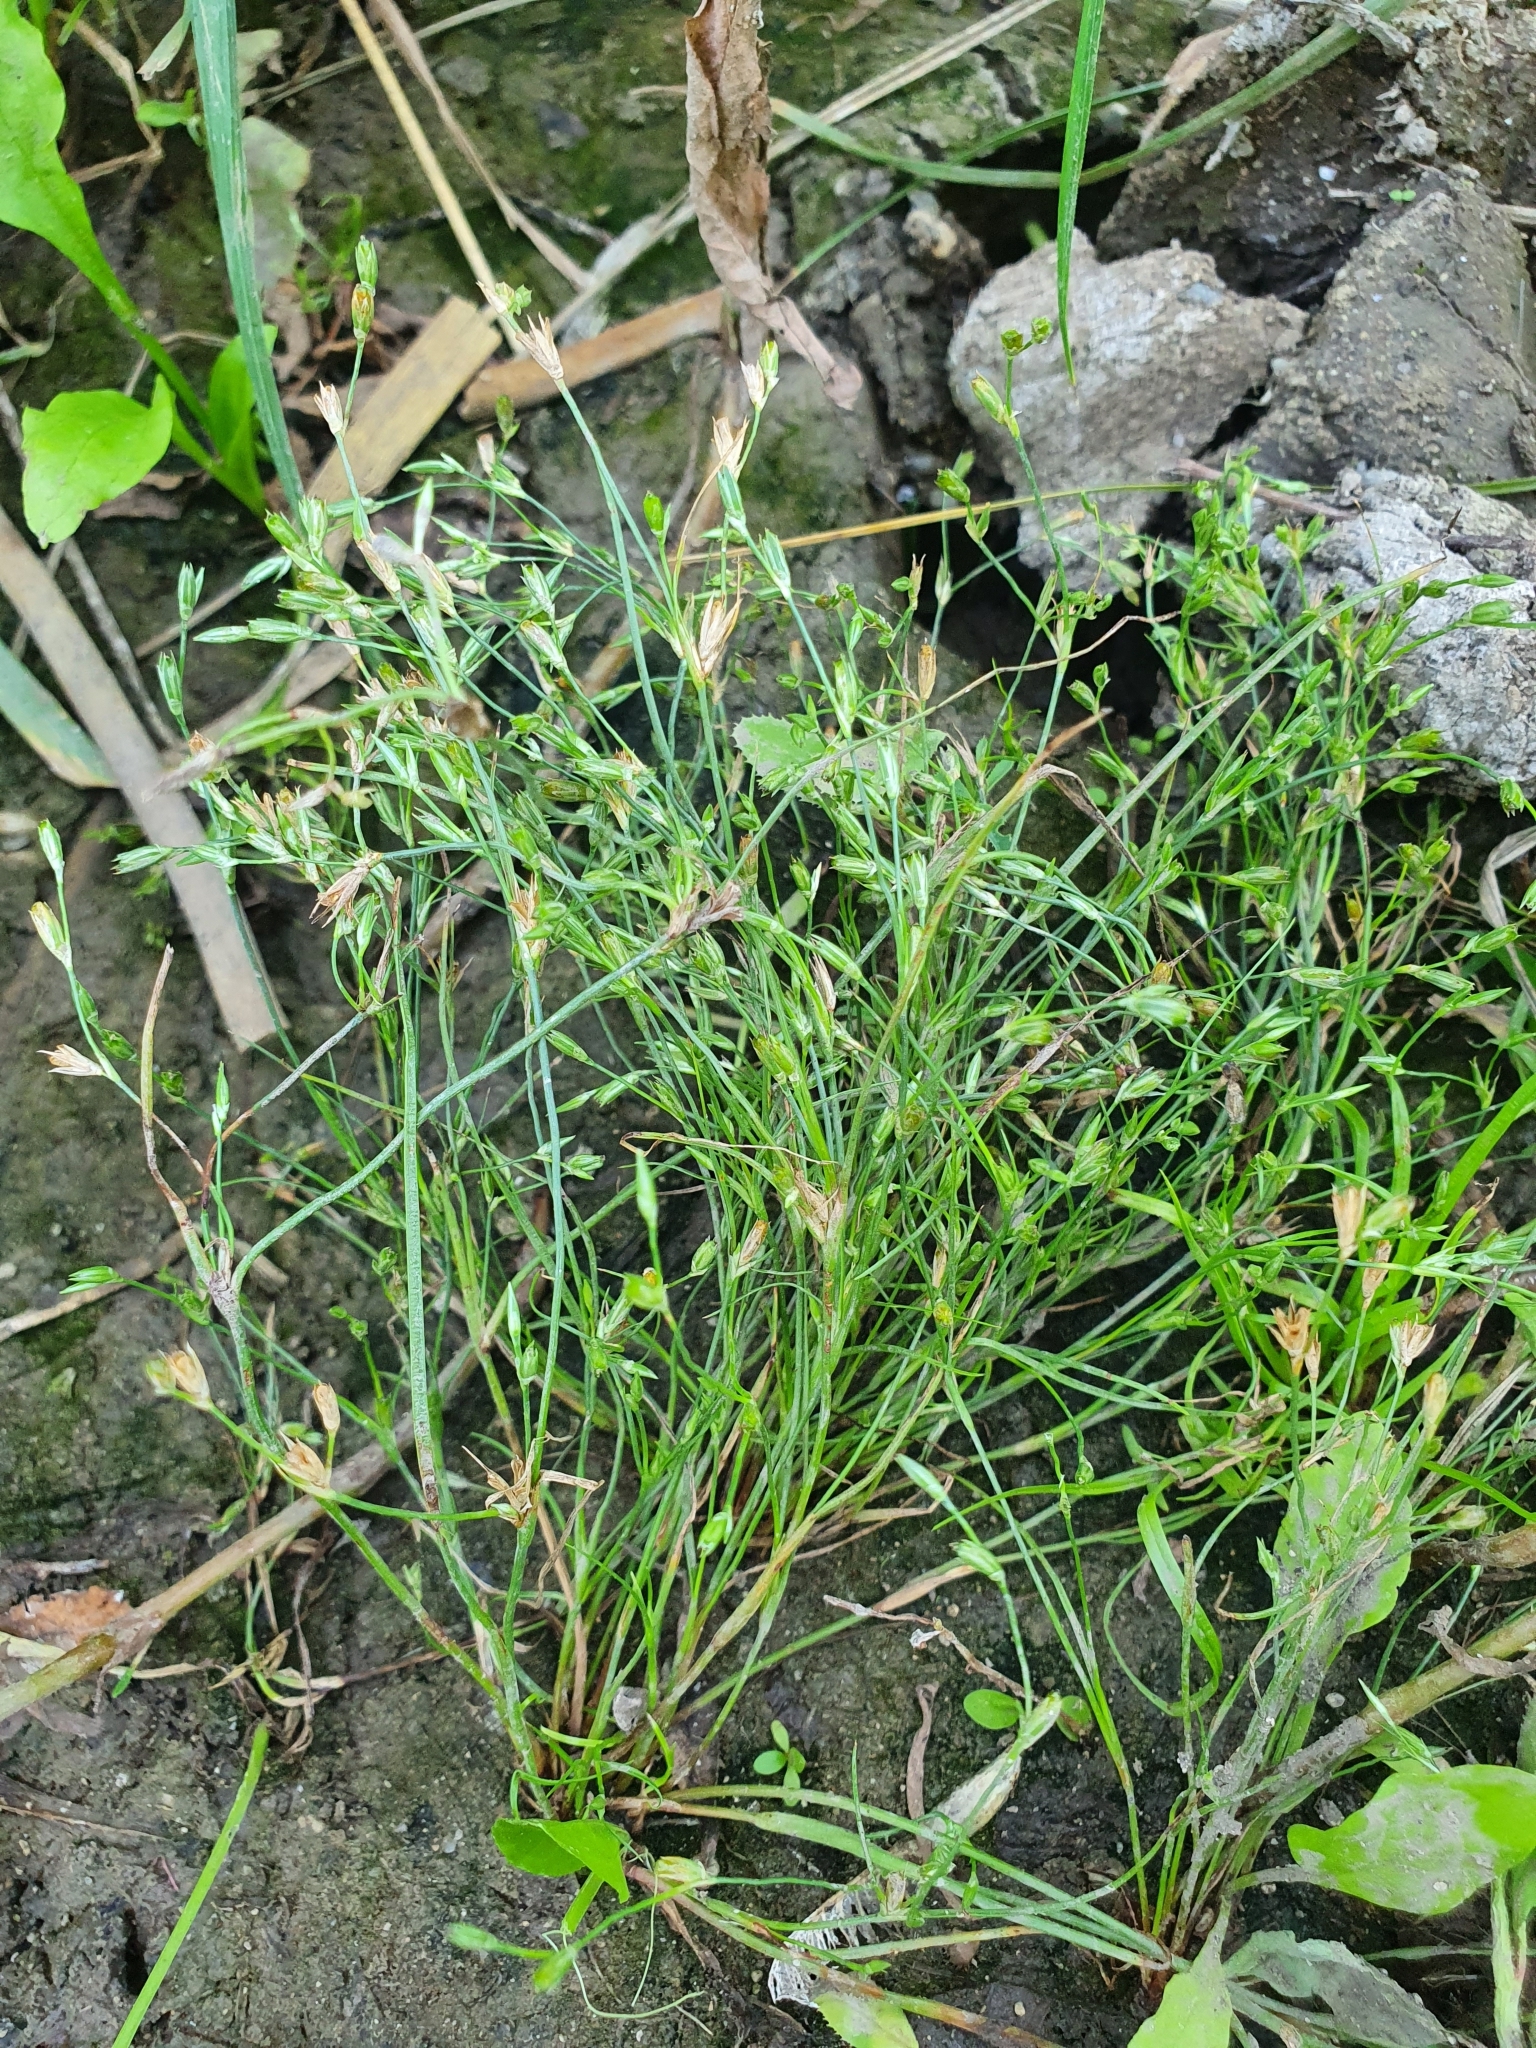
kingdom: Plantae
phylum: Tracheophyta
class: Liliopsida
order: Poales
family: Juncaceae
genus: Juncus
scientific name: Juncus bufonius
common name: Toad rush
